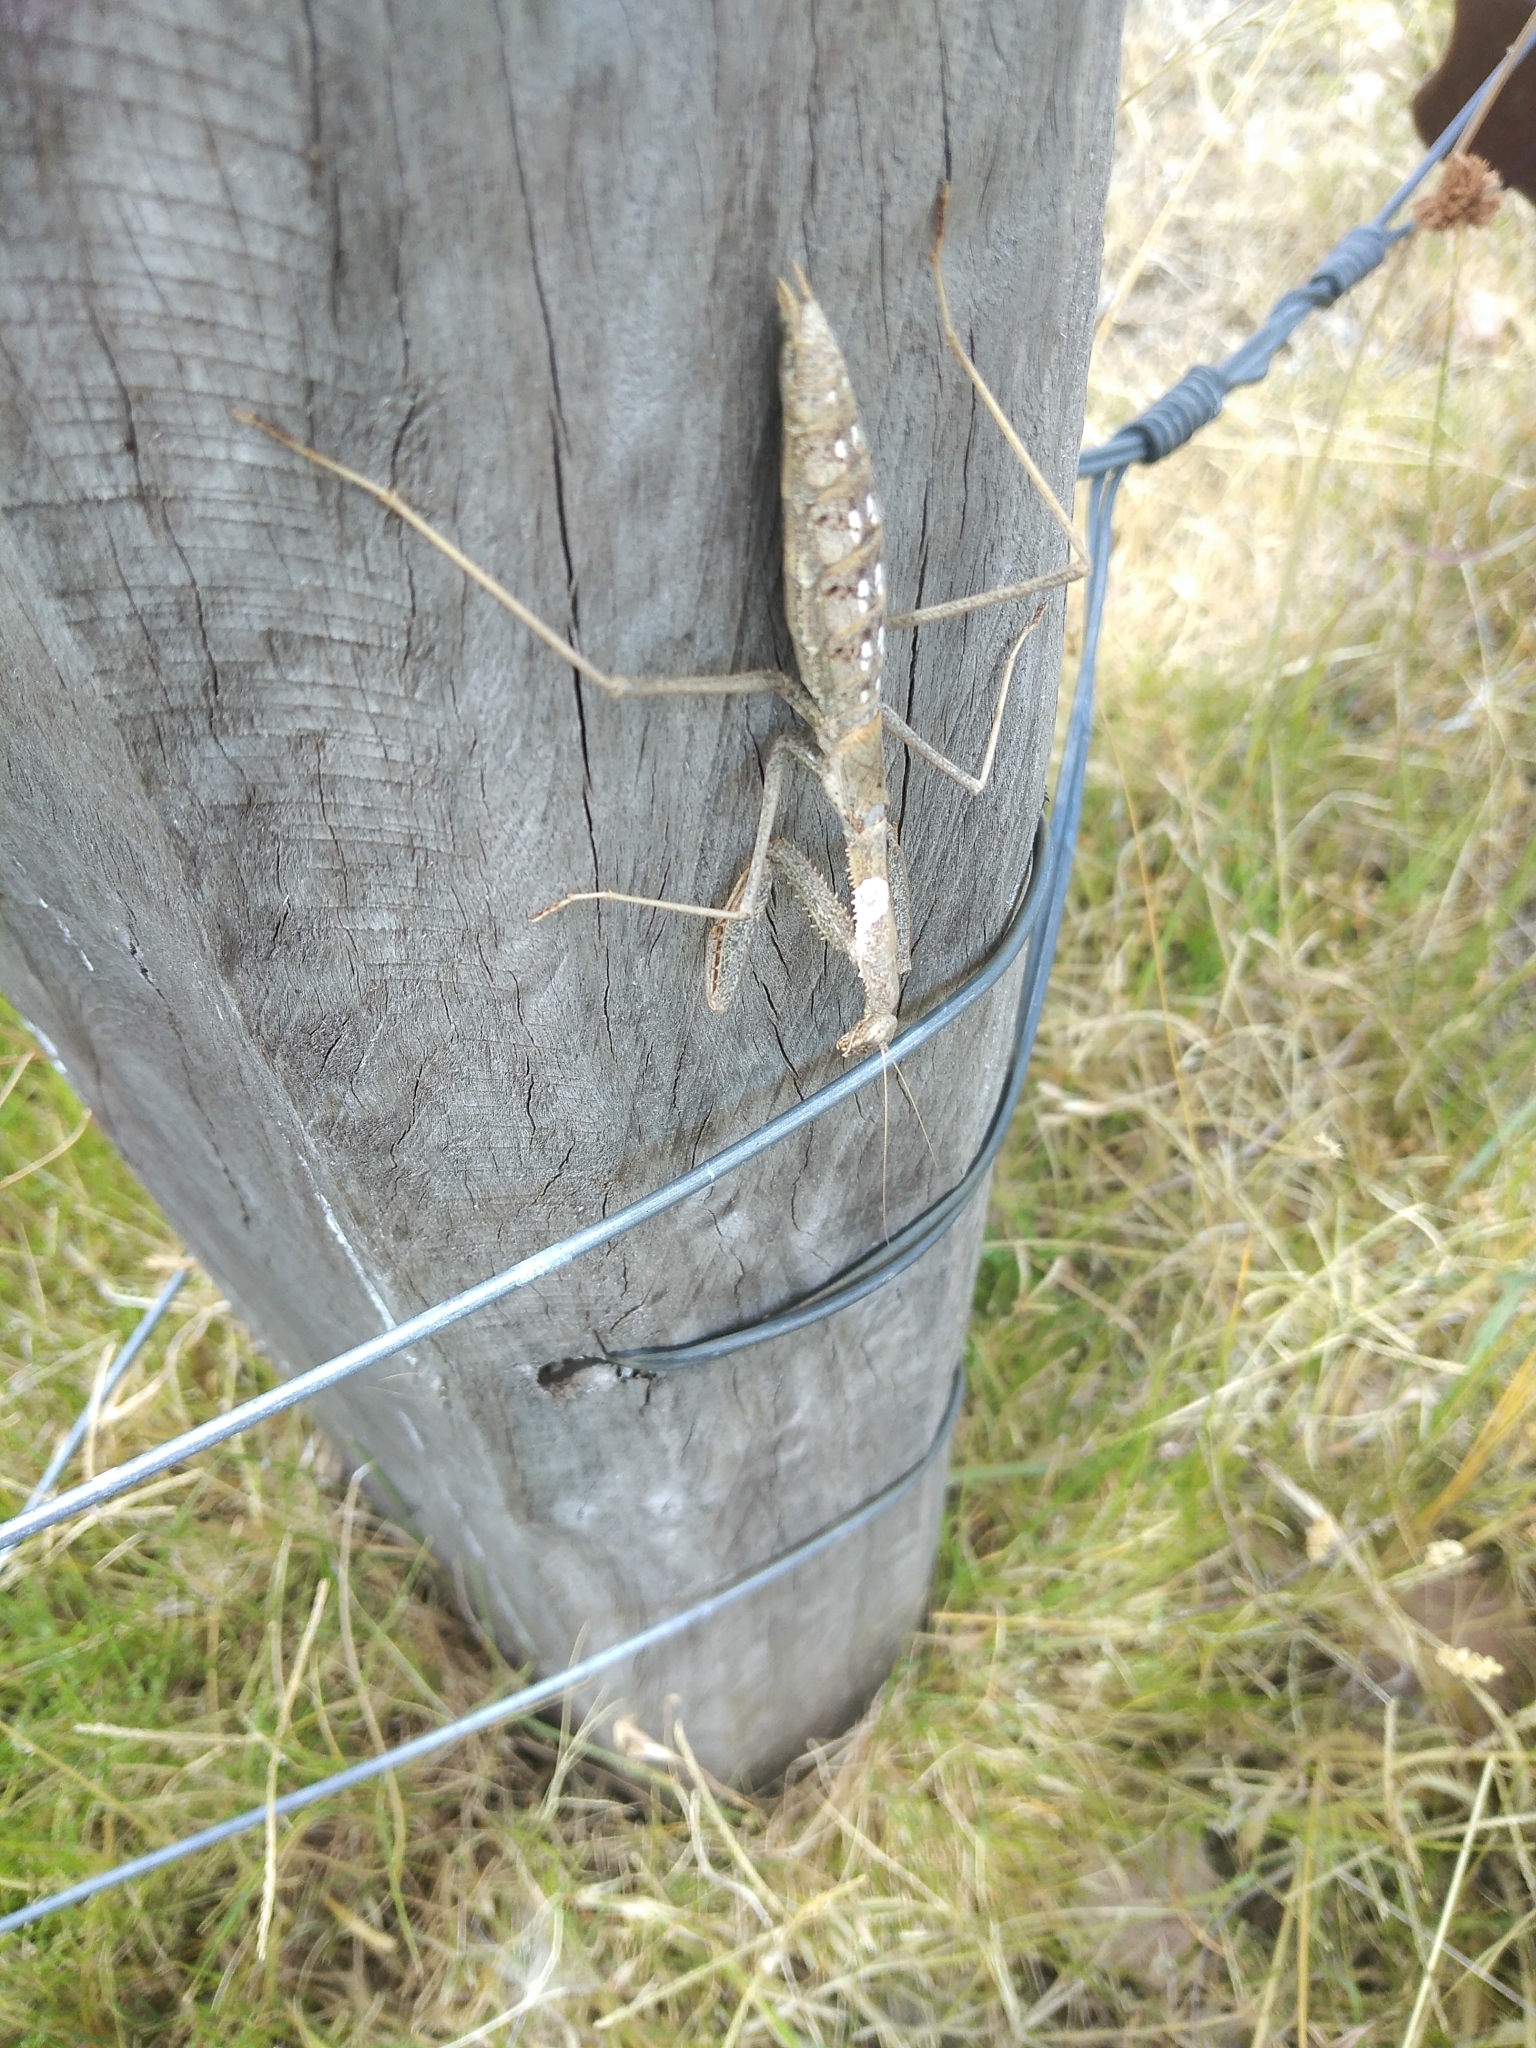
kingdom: Animalia
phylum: Arthropoda
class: Insecta
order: Mantodea
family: Coptopterygidae
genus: Coptopteryx
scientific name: Coptopteryx gayi
